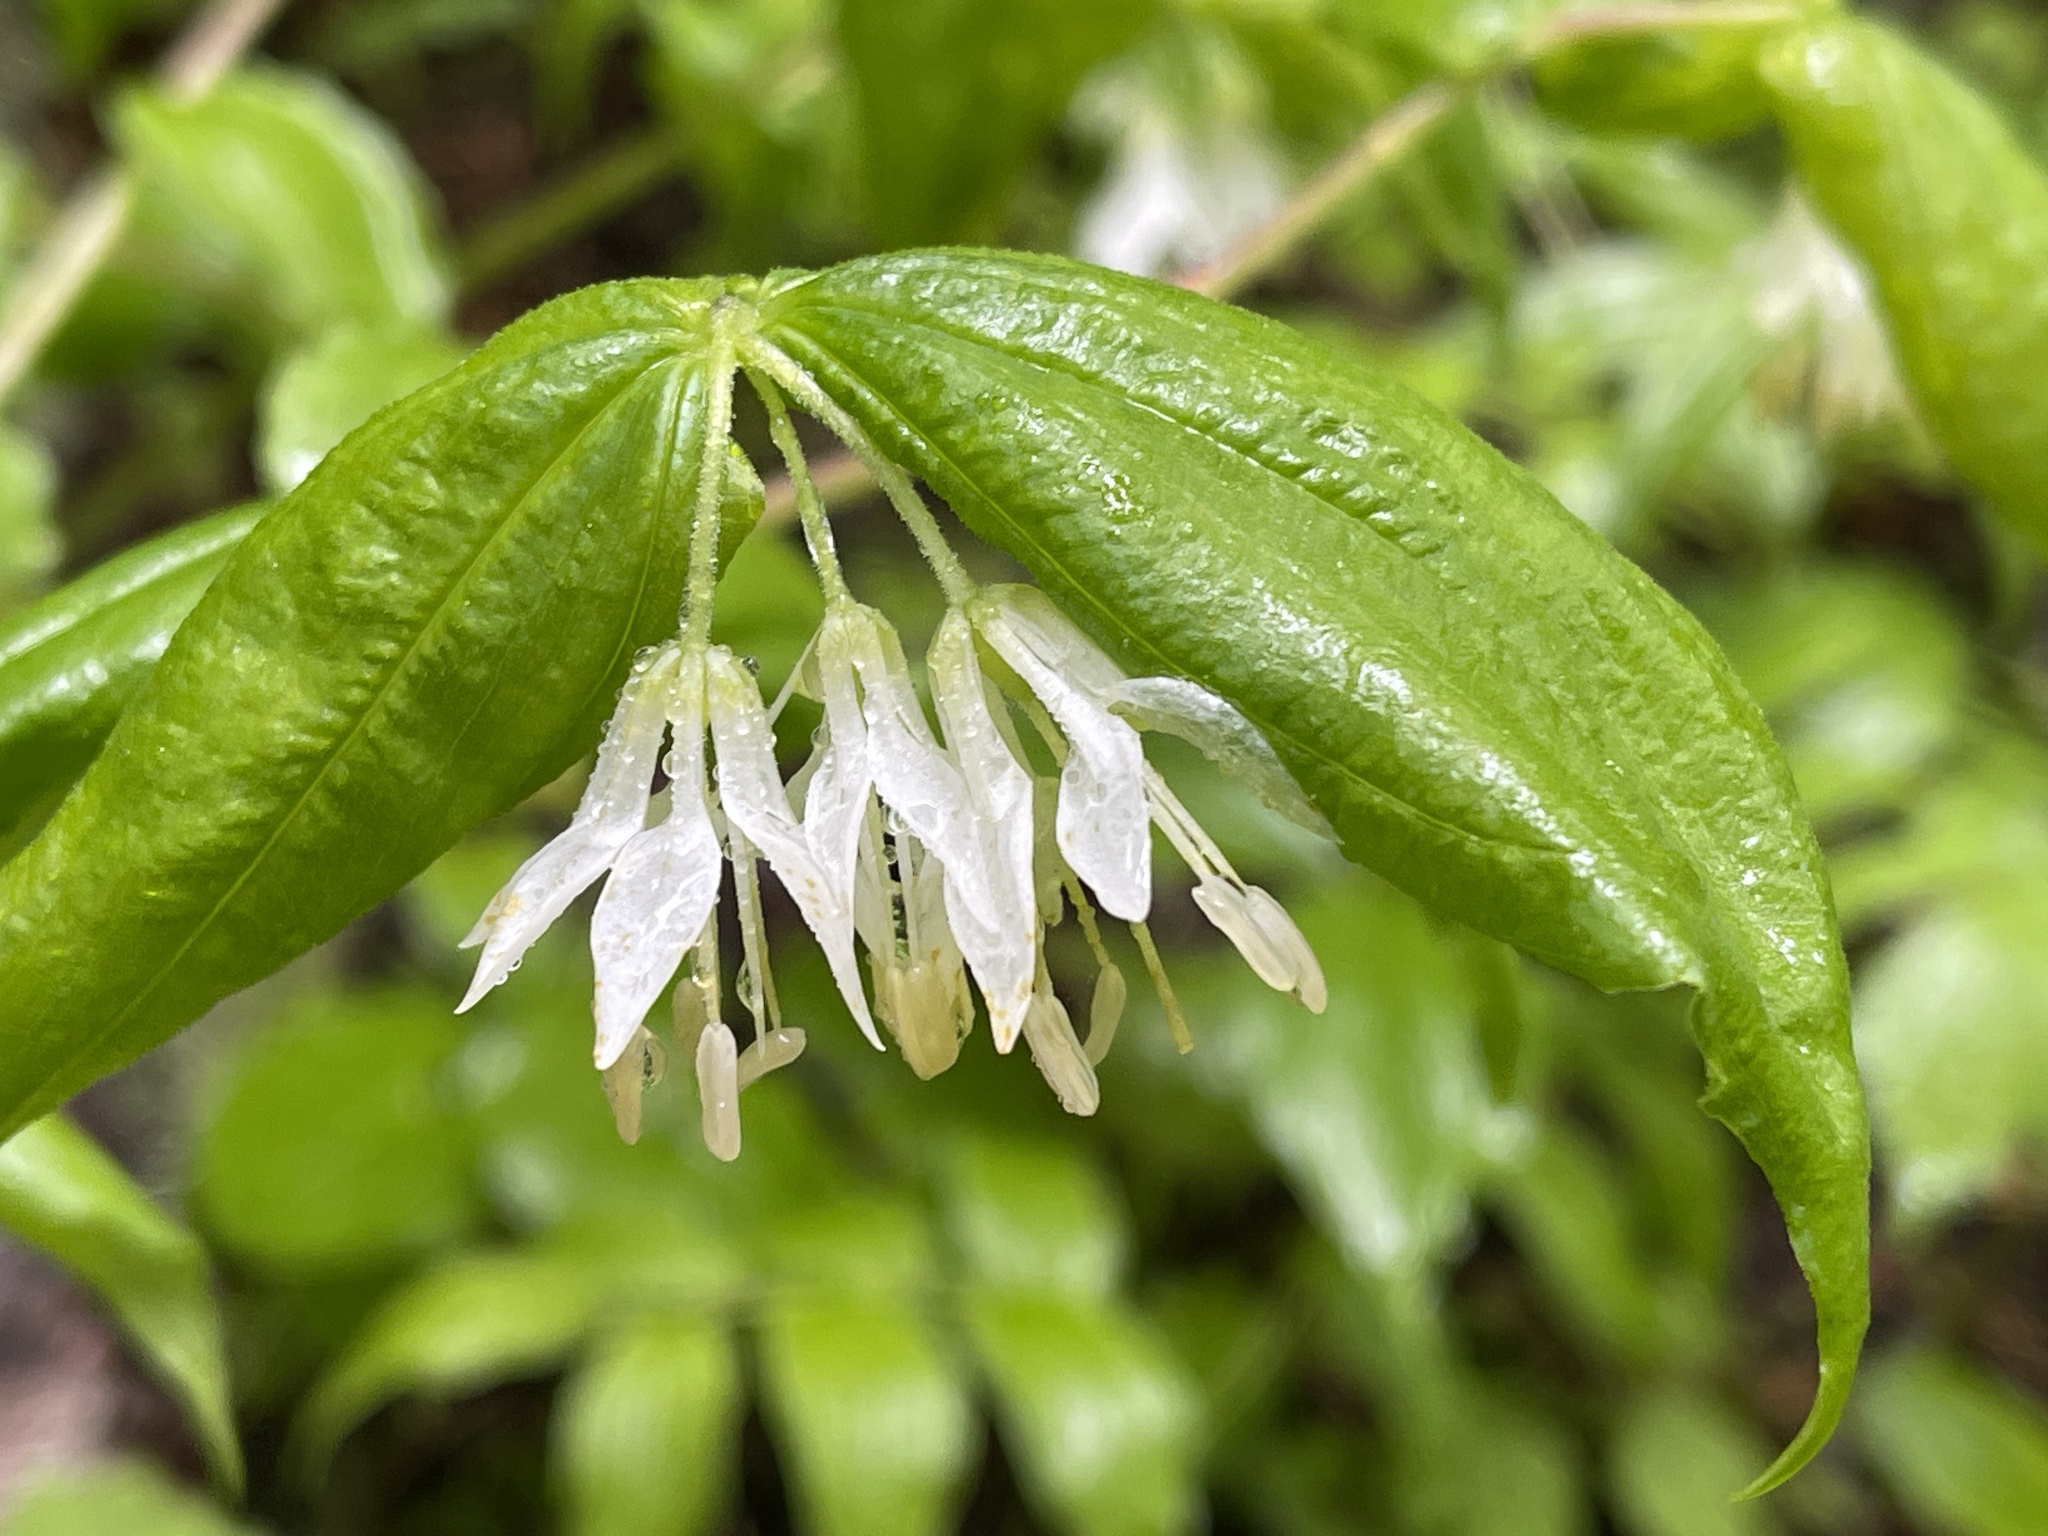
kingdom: Plantae
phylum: Tracheophyta
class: Liliopsida
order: Liliales
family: Liliaceae
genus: Prosartes
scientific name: Prosartes hookeri
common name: Fairy-bells
